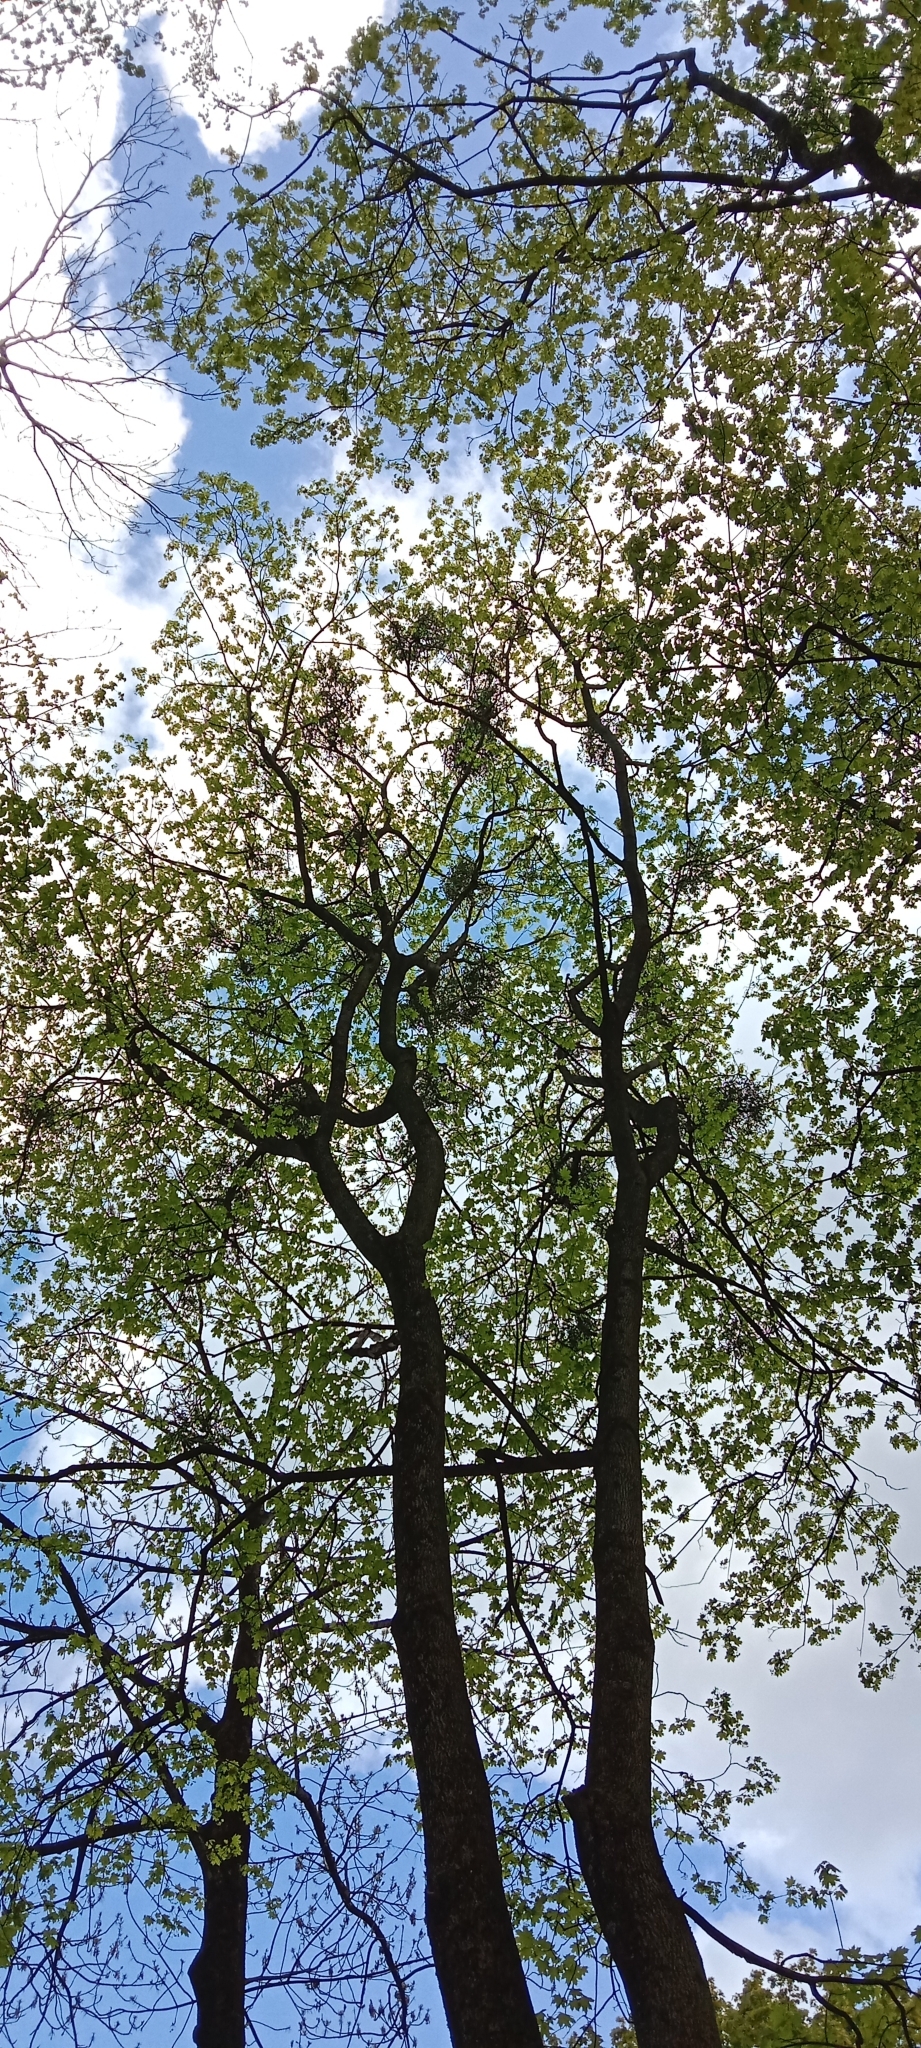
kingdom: Plantae
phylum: Tracheophyta
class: Magnoliopsida
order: Santalales
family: Viscaceae
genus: Viscum
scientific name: Viscum album
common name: Mistletoe
